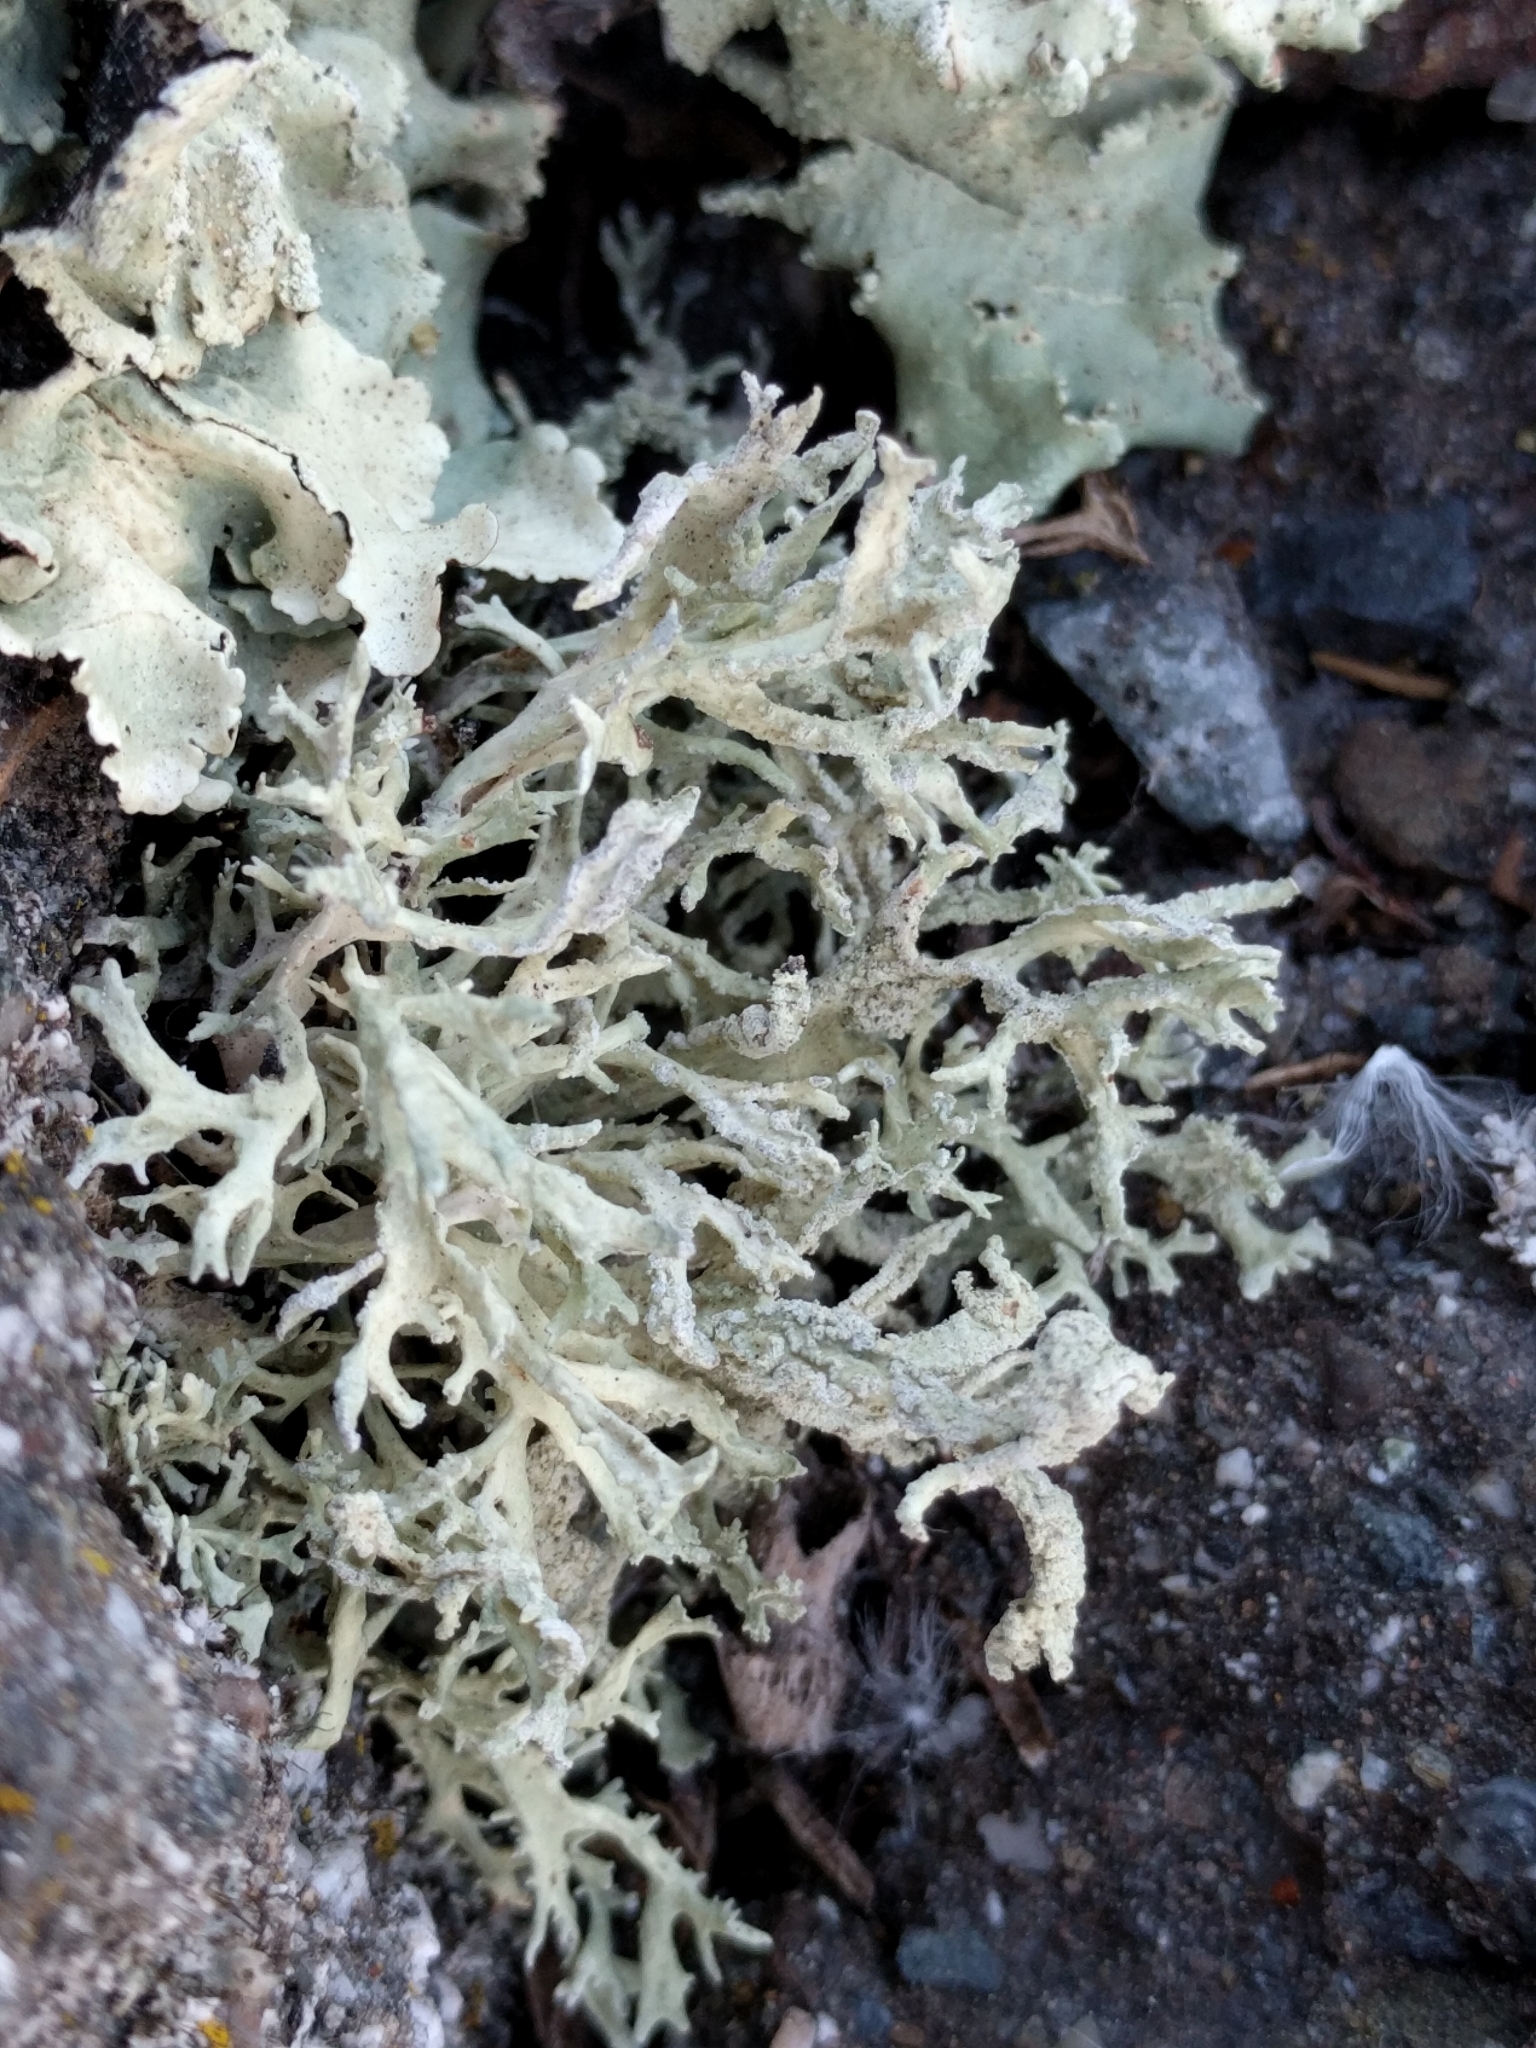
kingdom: Fungi
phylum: Ascomycota
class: Lecanoromycetes
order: Lecanorales
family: Parmeliaceae
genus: Evernia
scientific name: Evernia prunastri
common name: Oak moss
